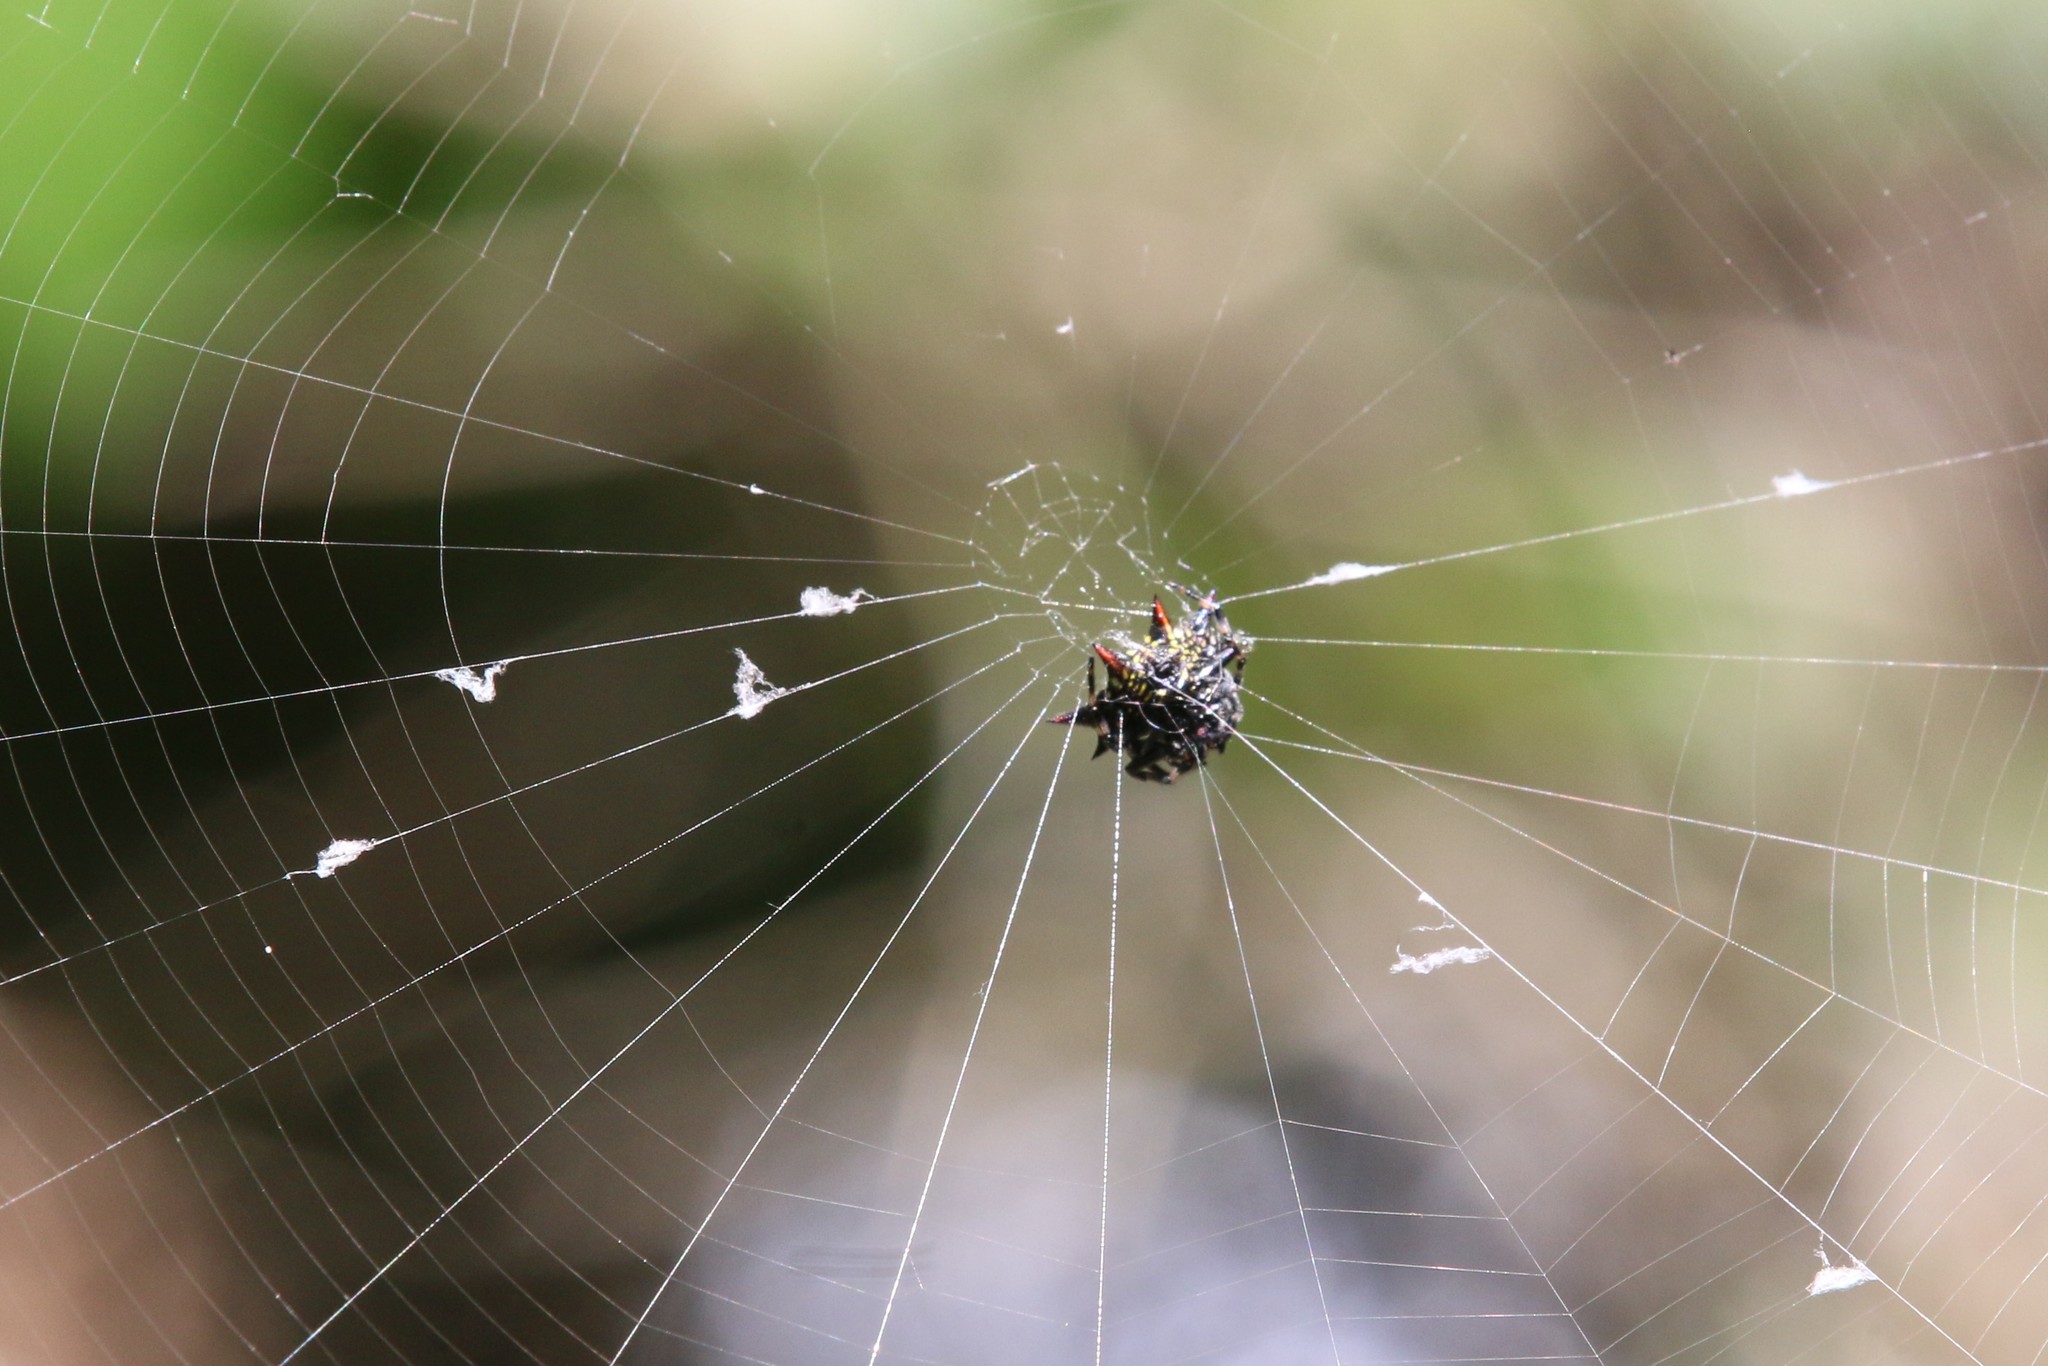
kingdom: Animalia
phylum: Arthropoda
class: Arachnida
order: Araneae
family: Araneidae
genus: Gasteracantha
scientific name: Gasteracantha cancriformis
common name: Orb weavers
